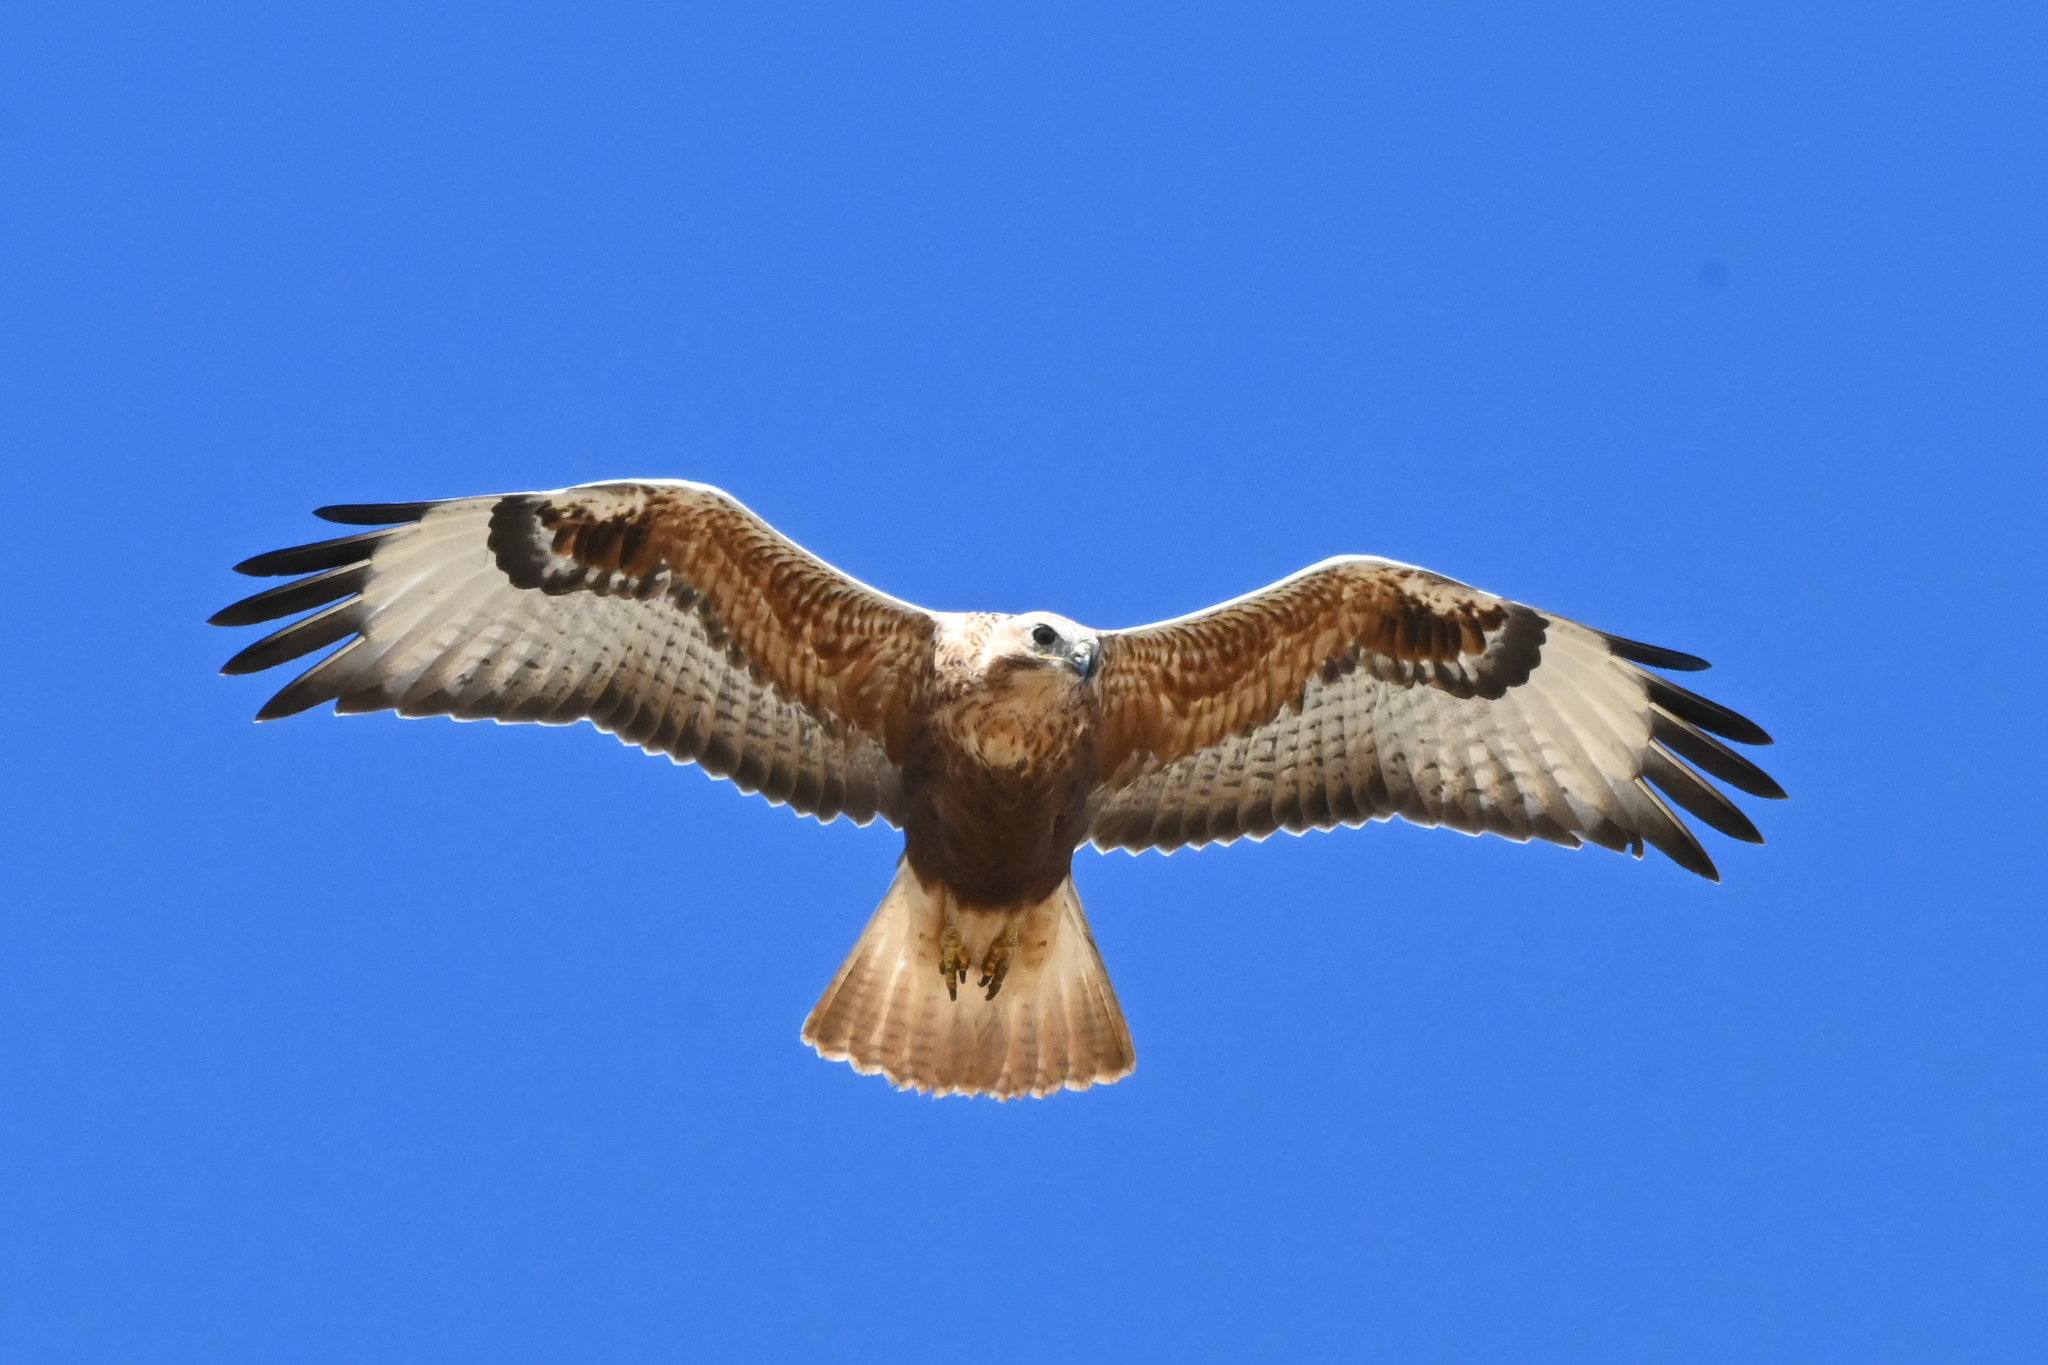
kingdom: Animalia
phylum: Chordata
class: Aves
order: Accipitriformes
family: Accipitridae
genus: Buteo
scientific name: Buteo rufinus
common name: Long-legged buzzard
